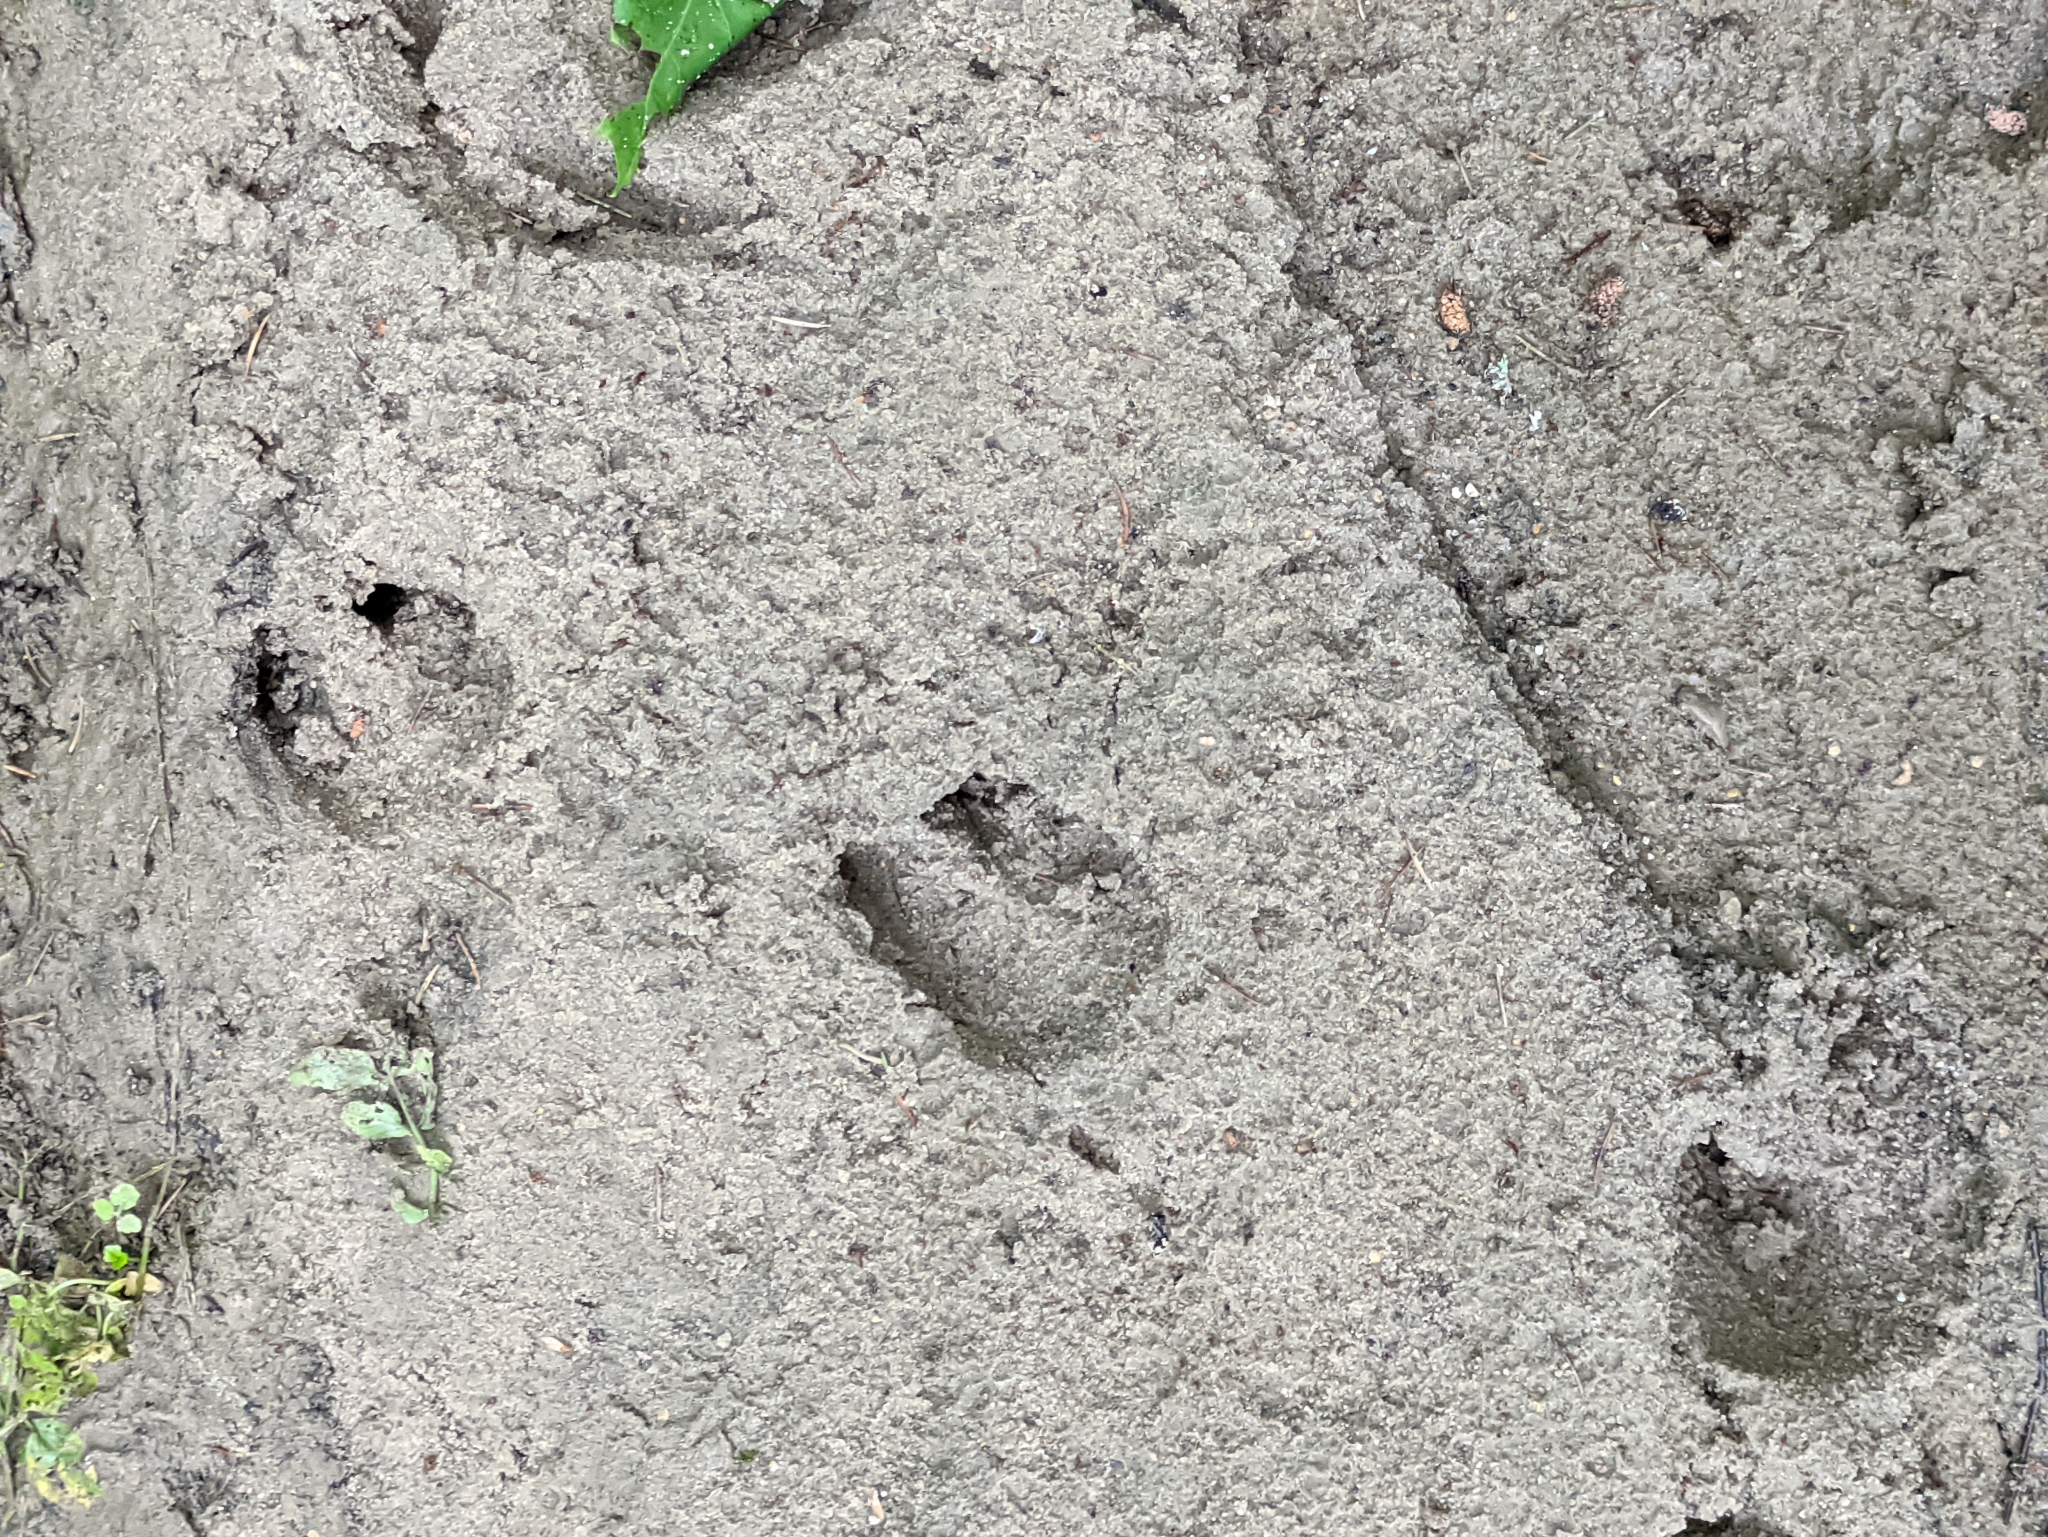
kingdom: Animalia
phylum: Chordata
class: Mammalia
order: Artiodactyla
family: Suidae
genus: Sus
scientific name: Sus scrofa
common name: Wild boar
